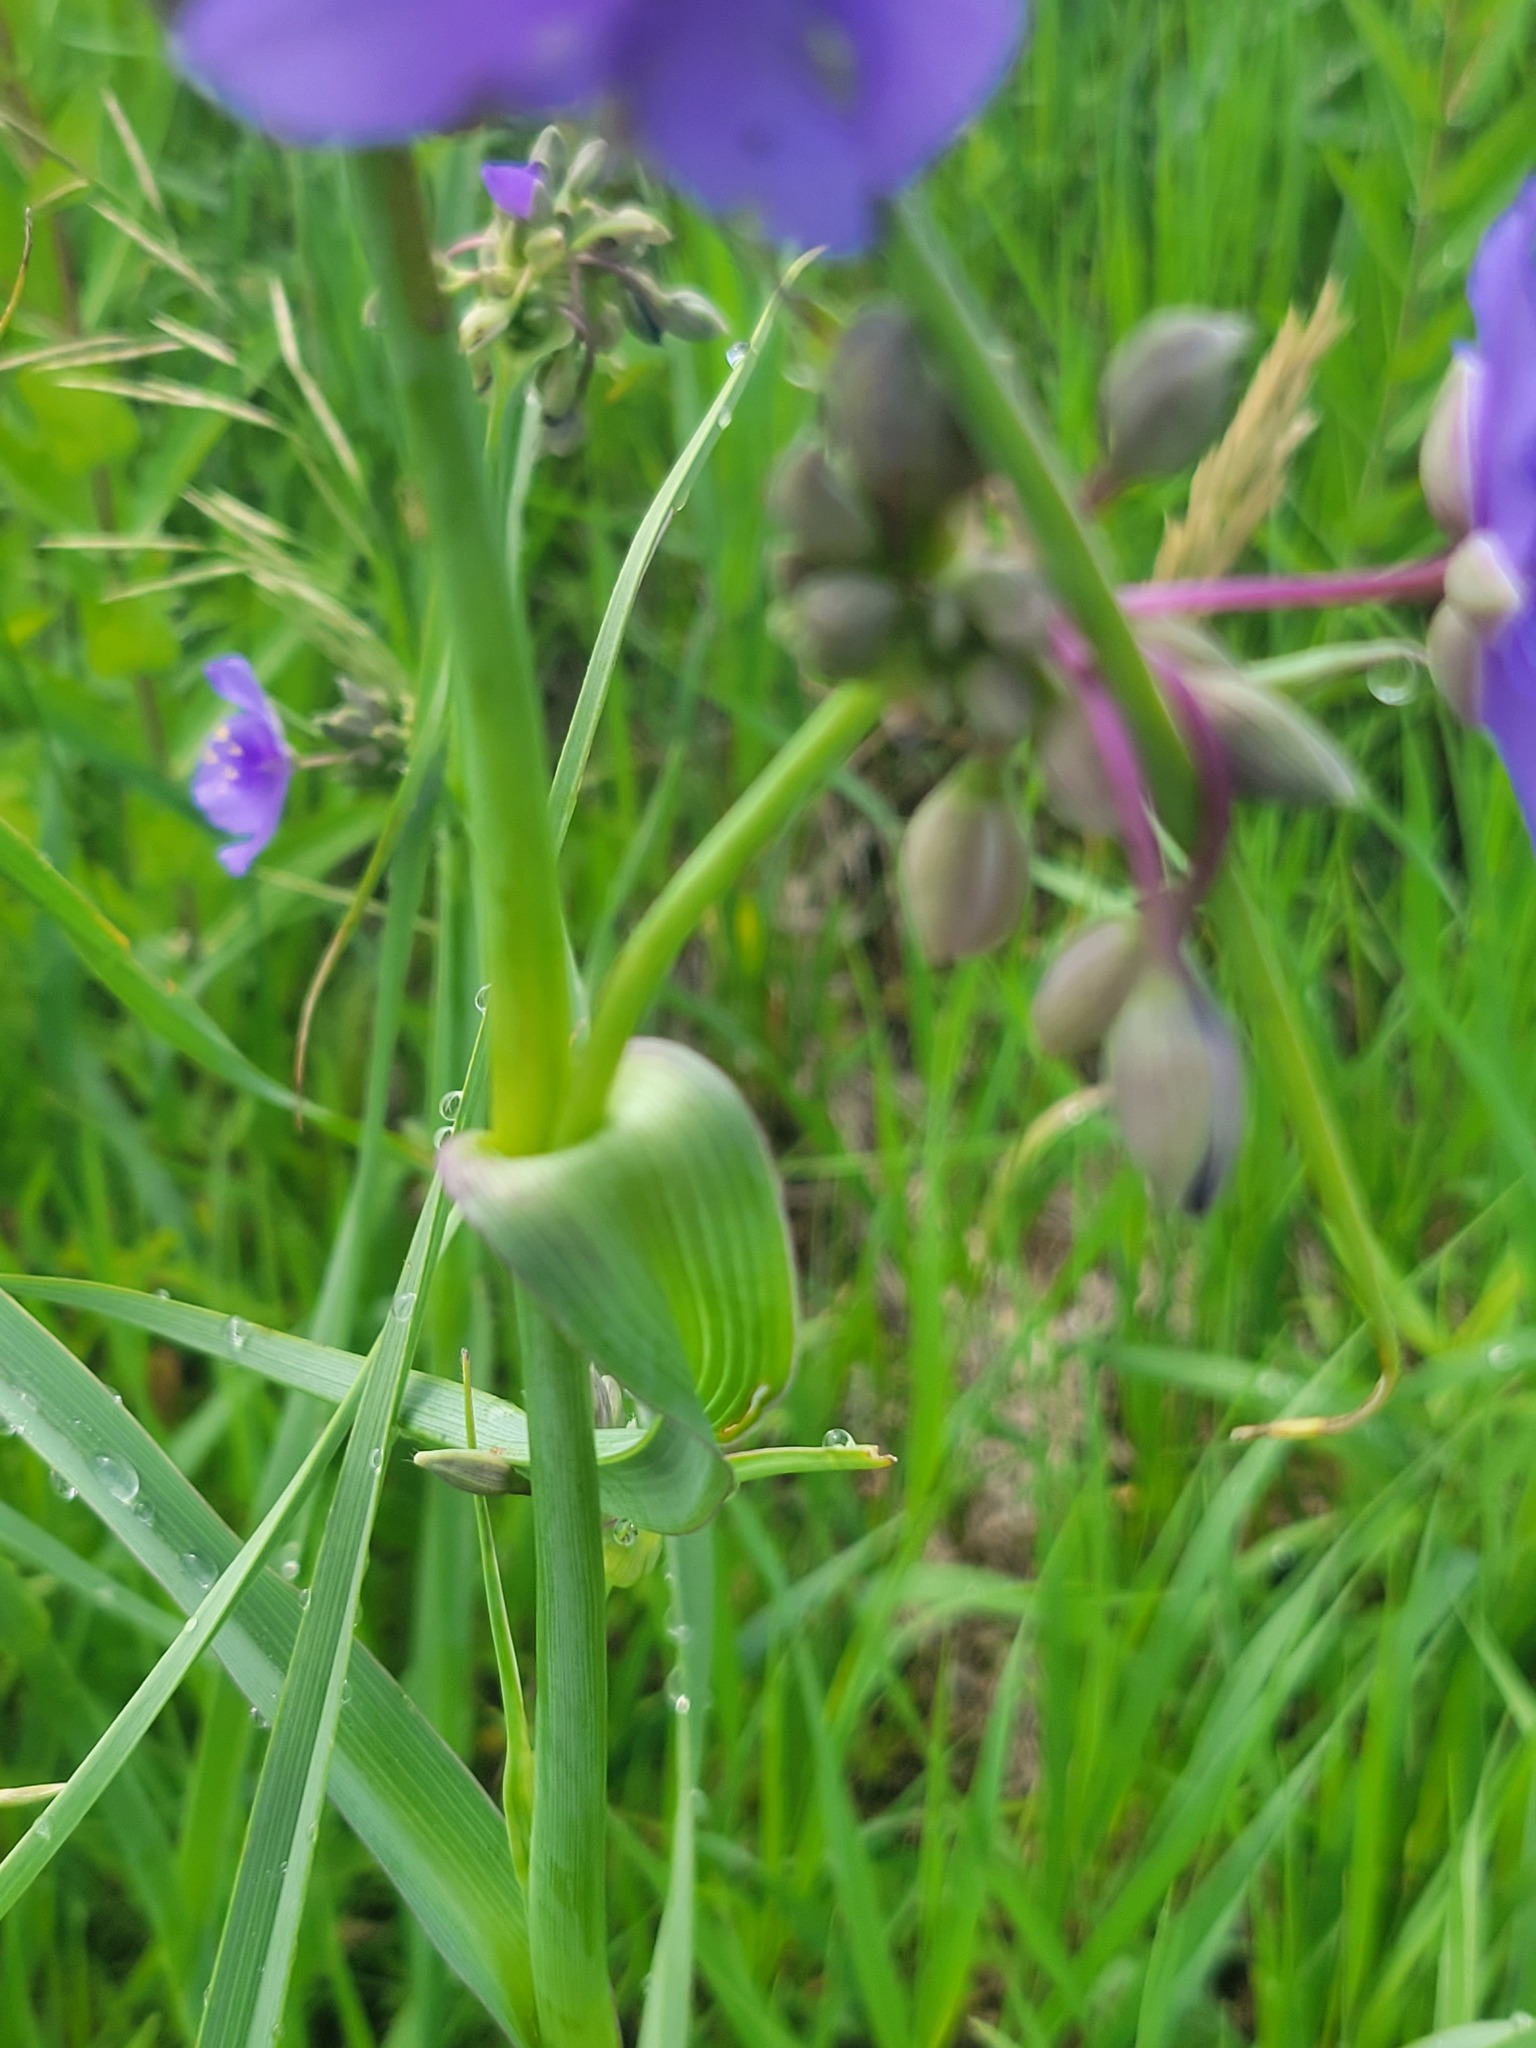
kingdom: Plantae
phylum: Tracheophyta
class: Liliopsida
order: Commelinales
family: Commelinaceae
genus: Tradescantia
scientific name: Tradescantia ohiensis
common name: Ohio spiderwort
